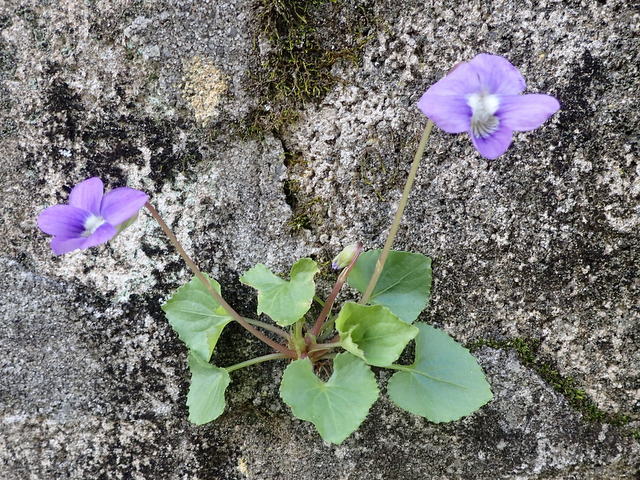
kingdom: Plantae
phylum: Tracheophyta
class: Magnoliopsida
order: Malpighiales
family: Violaceae
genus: Viola
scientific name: Viola sororia
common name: Dooryard violet
